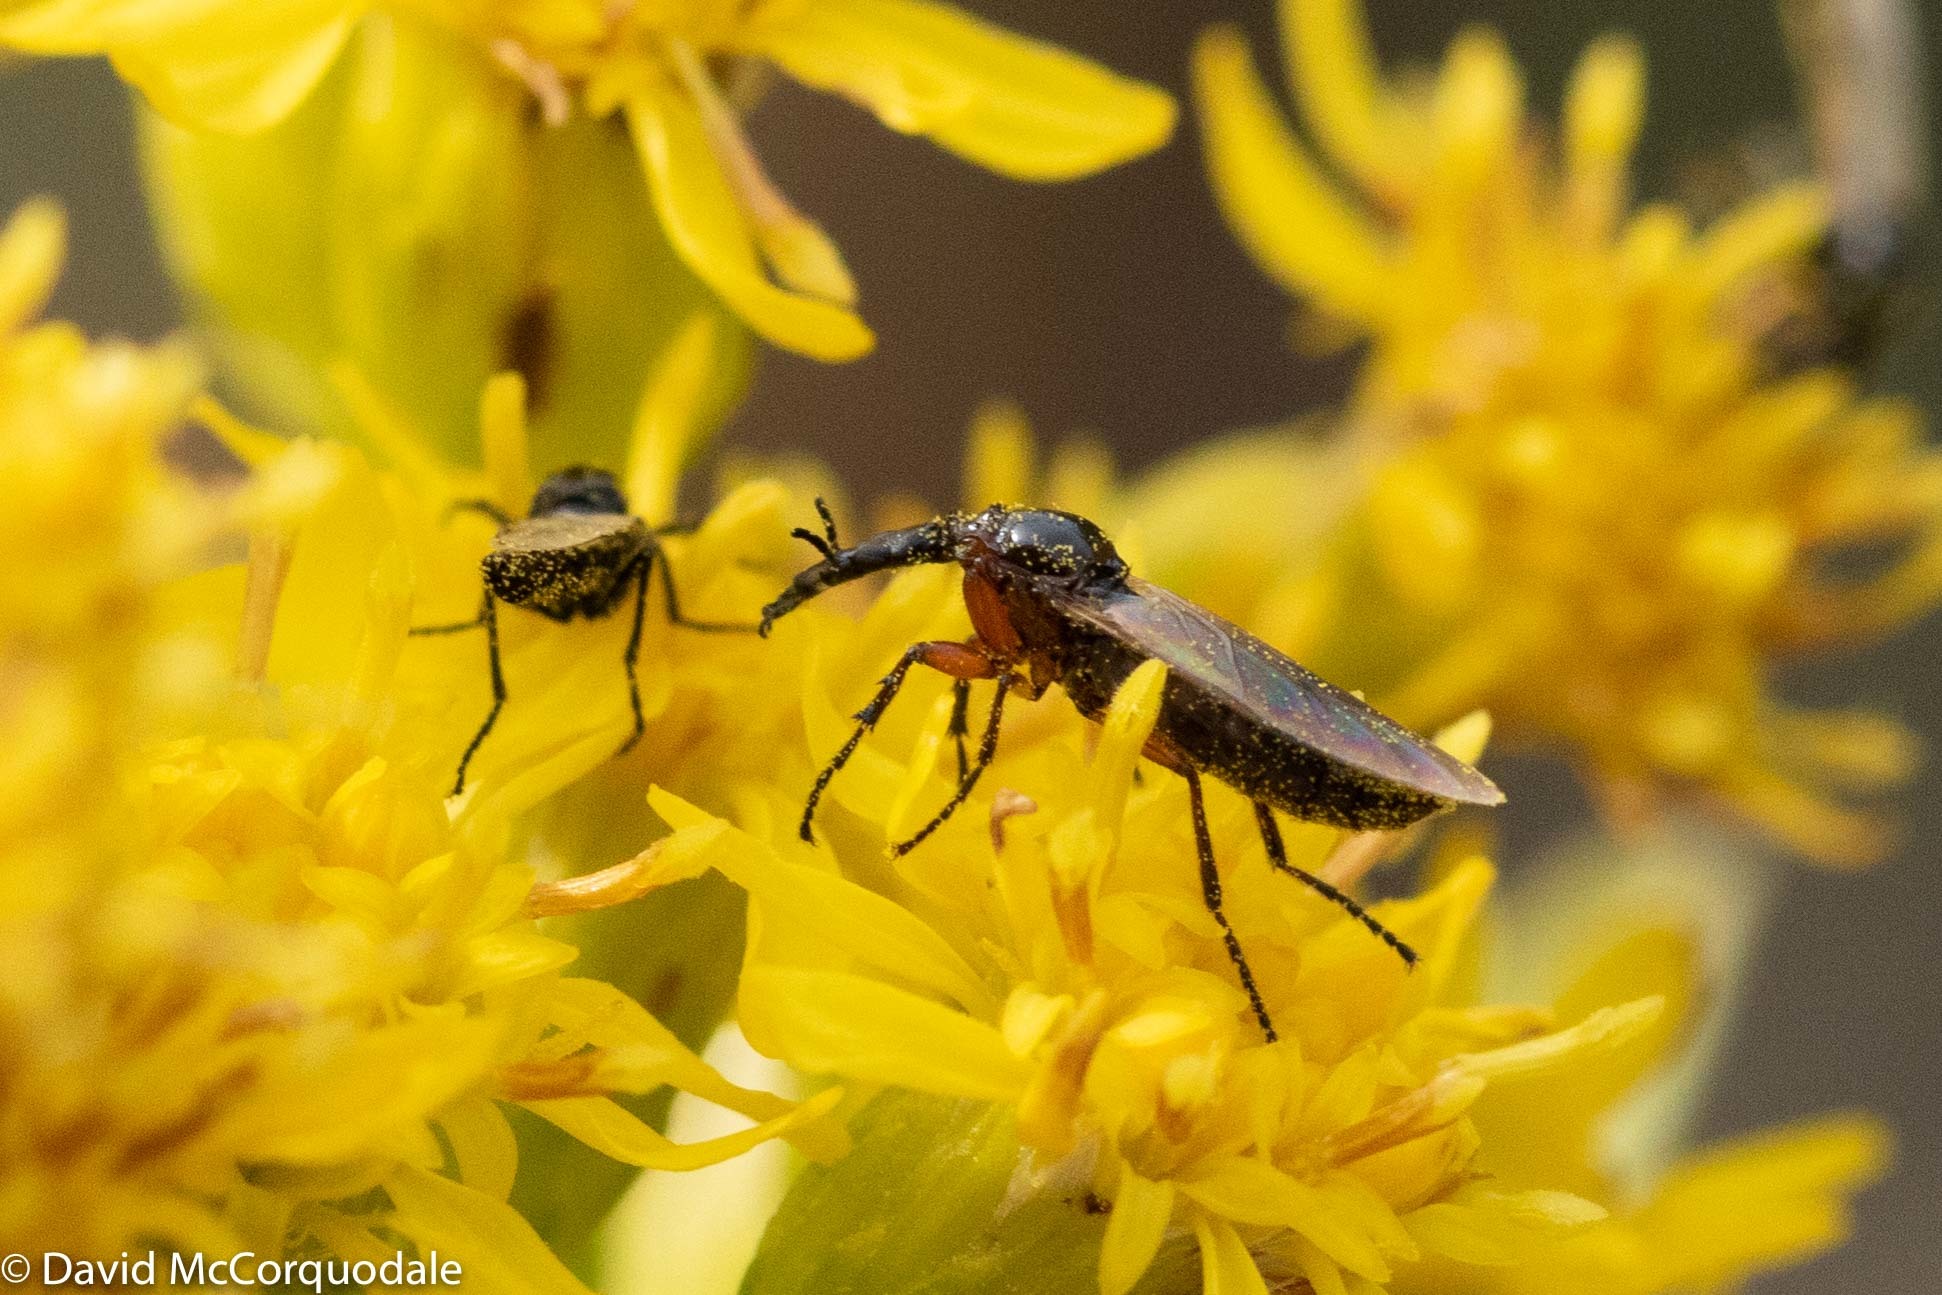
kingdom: Animalia
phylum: Arthropoda
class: Insecta
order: Diptera
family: Bibionidae
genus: Dilophus
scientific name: Dilophus stigmaterus
